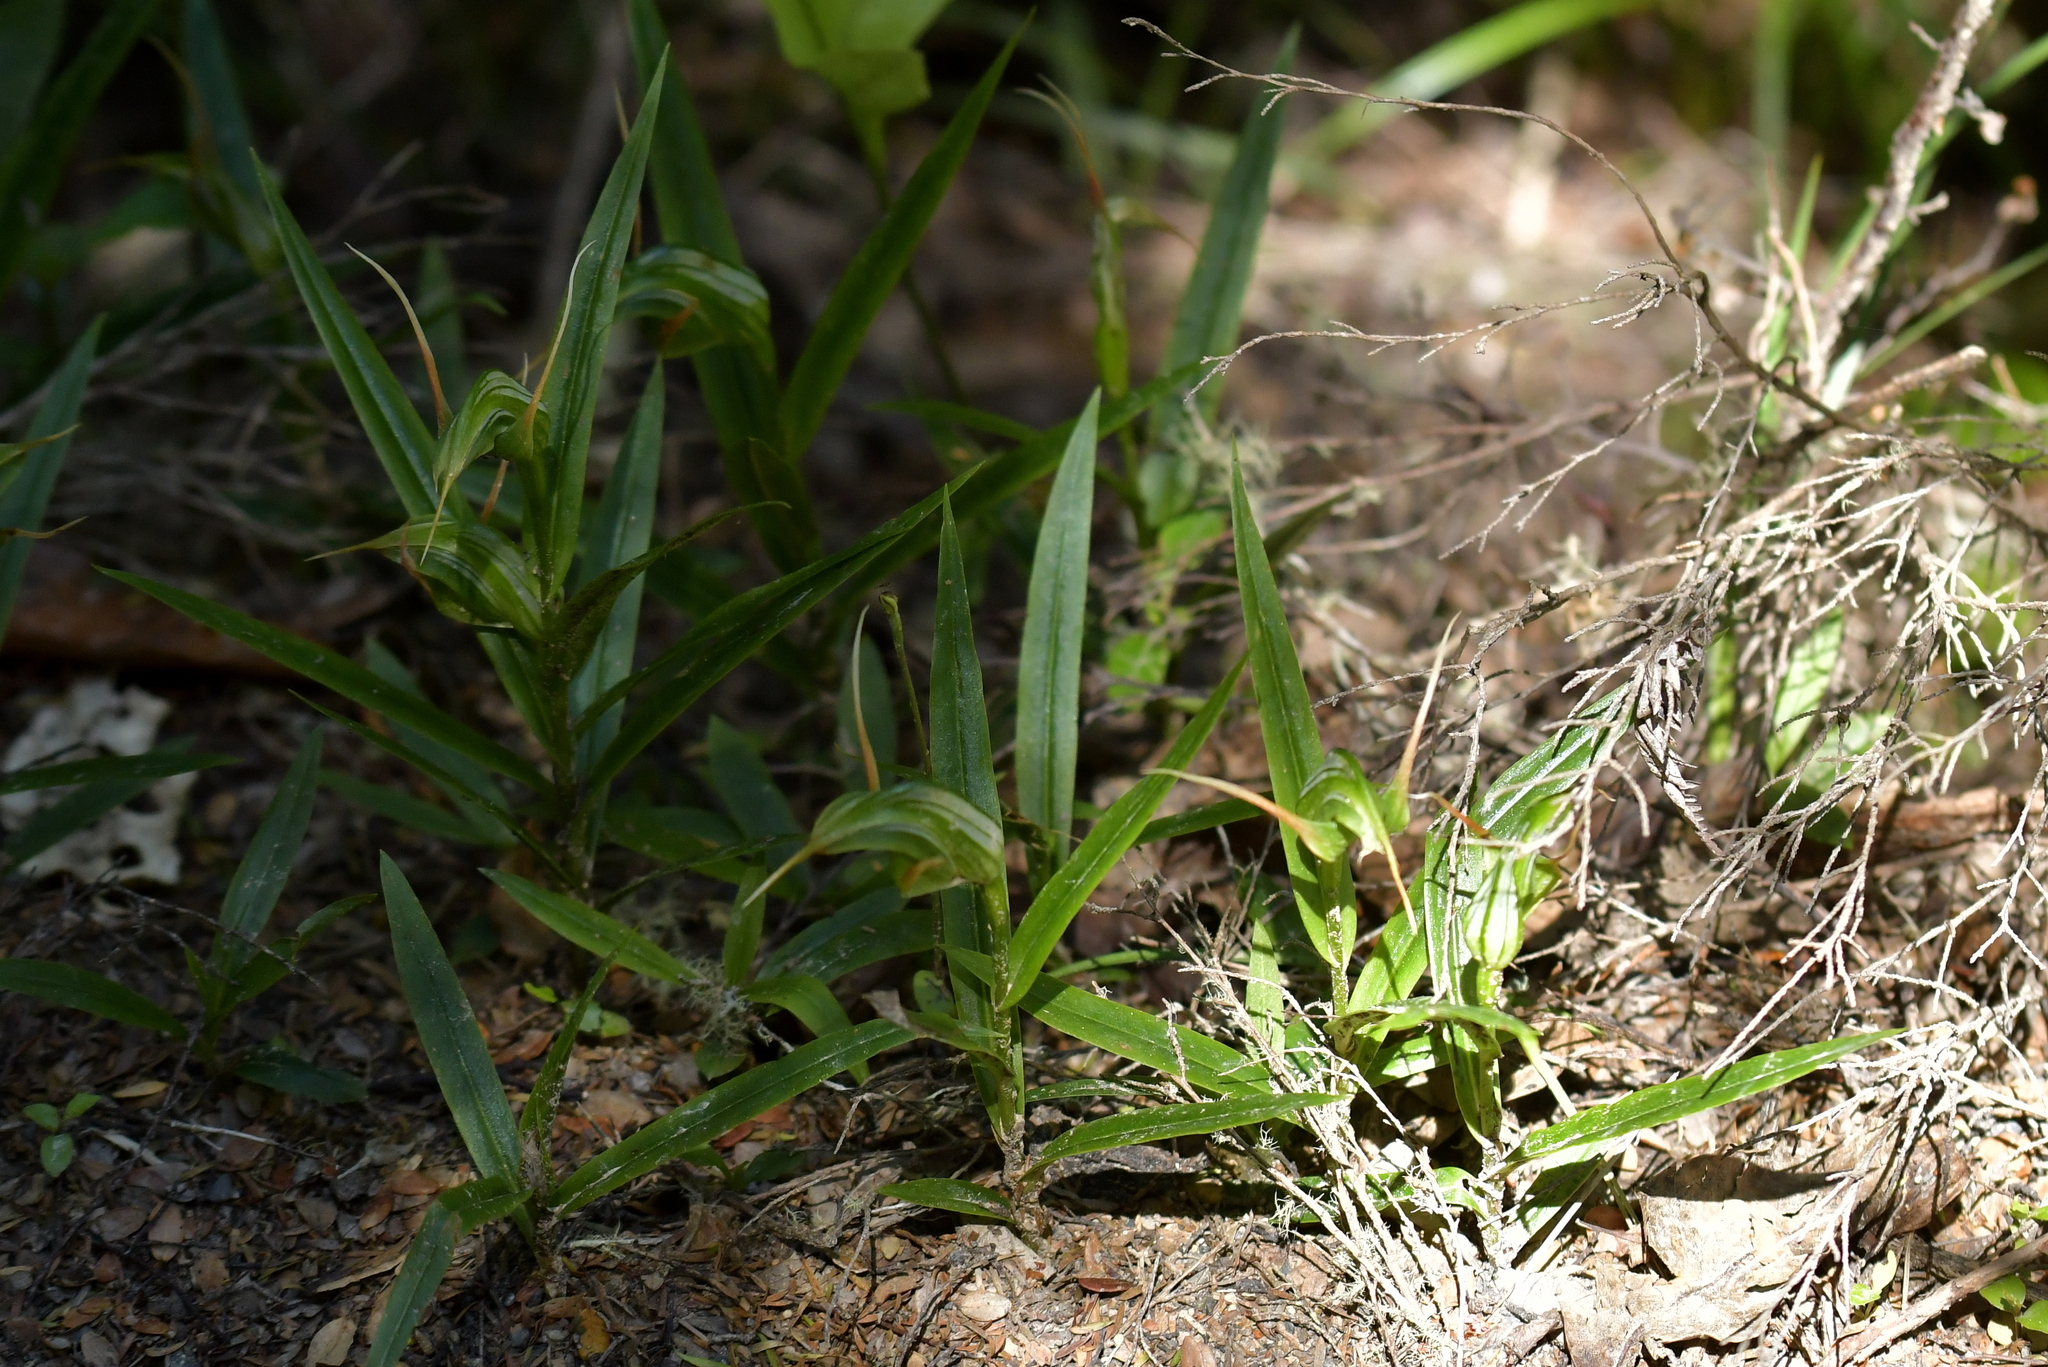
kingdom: Plantae
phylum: Tracheophyta
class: Liliopsida
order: Asparagales
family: Orchidaceae
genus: Pterostylis
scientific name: Pterostylis banksii
